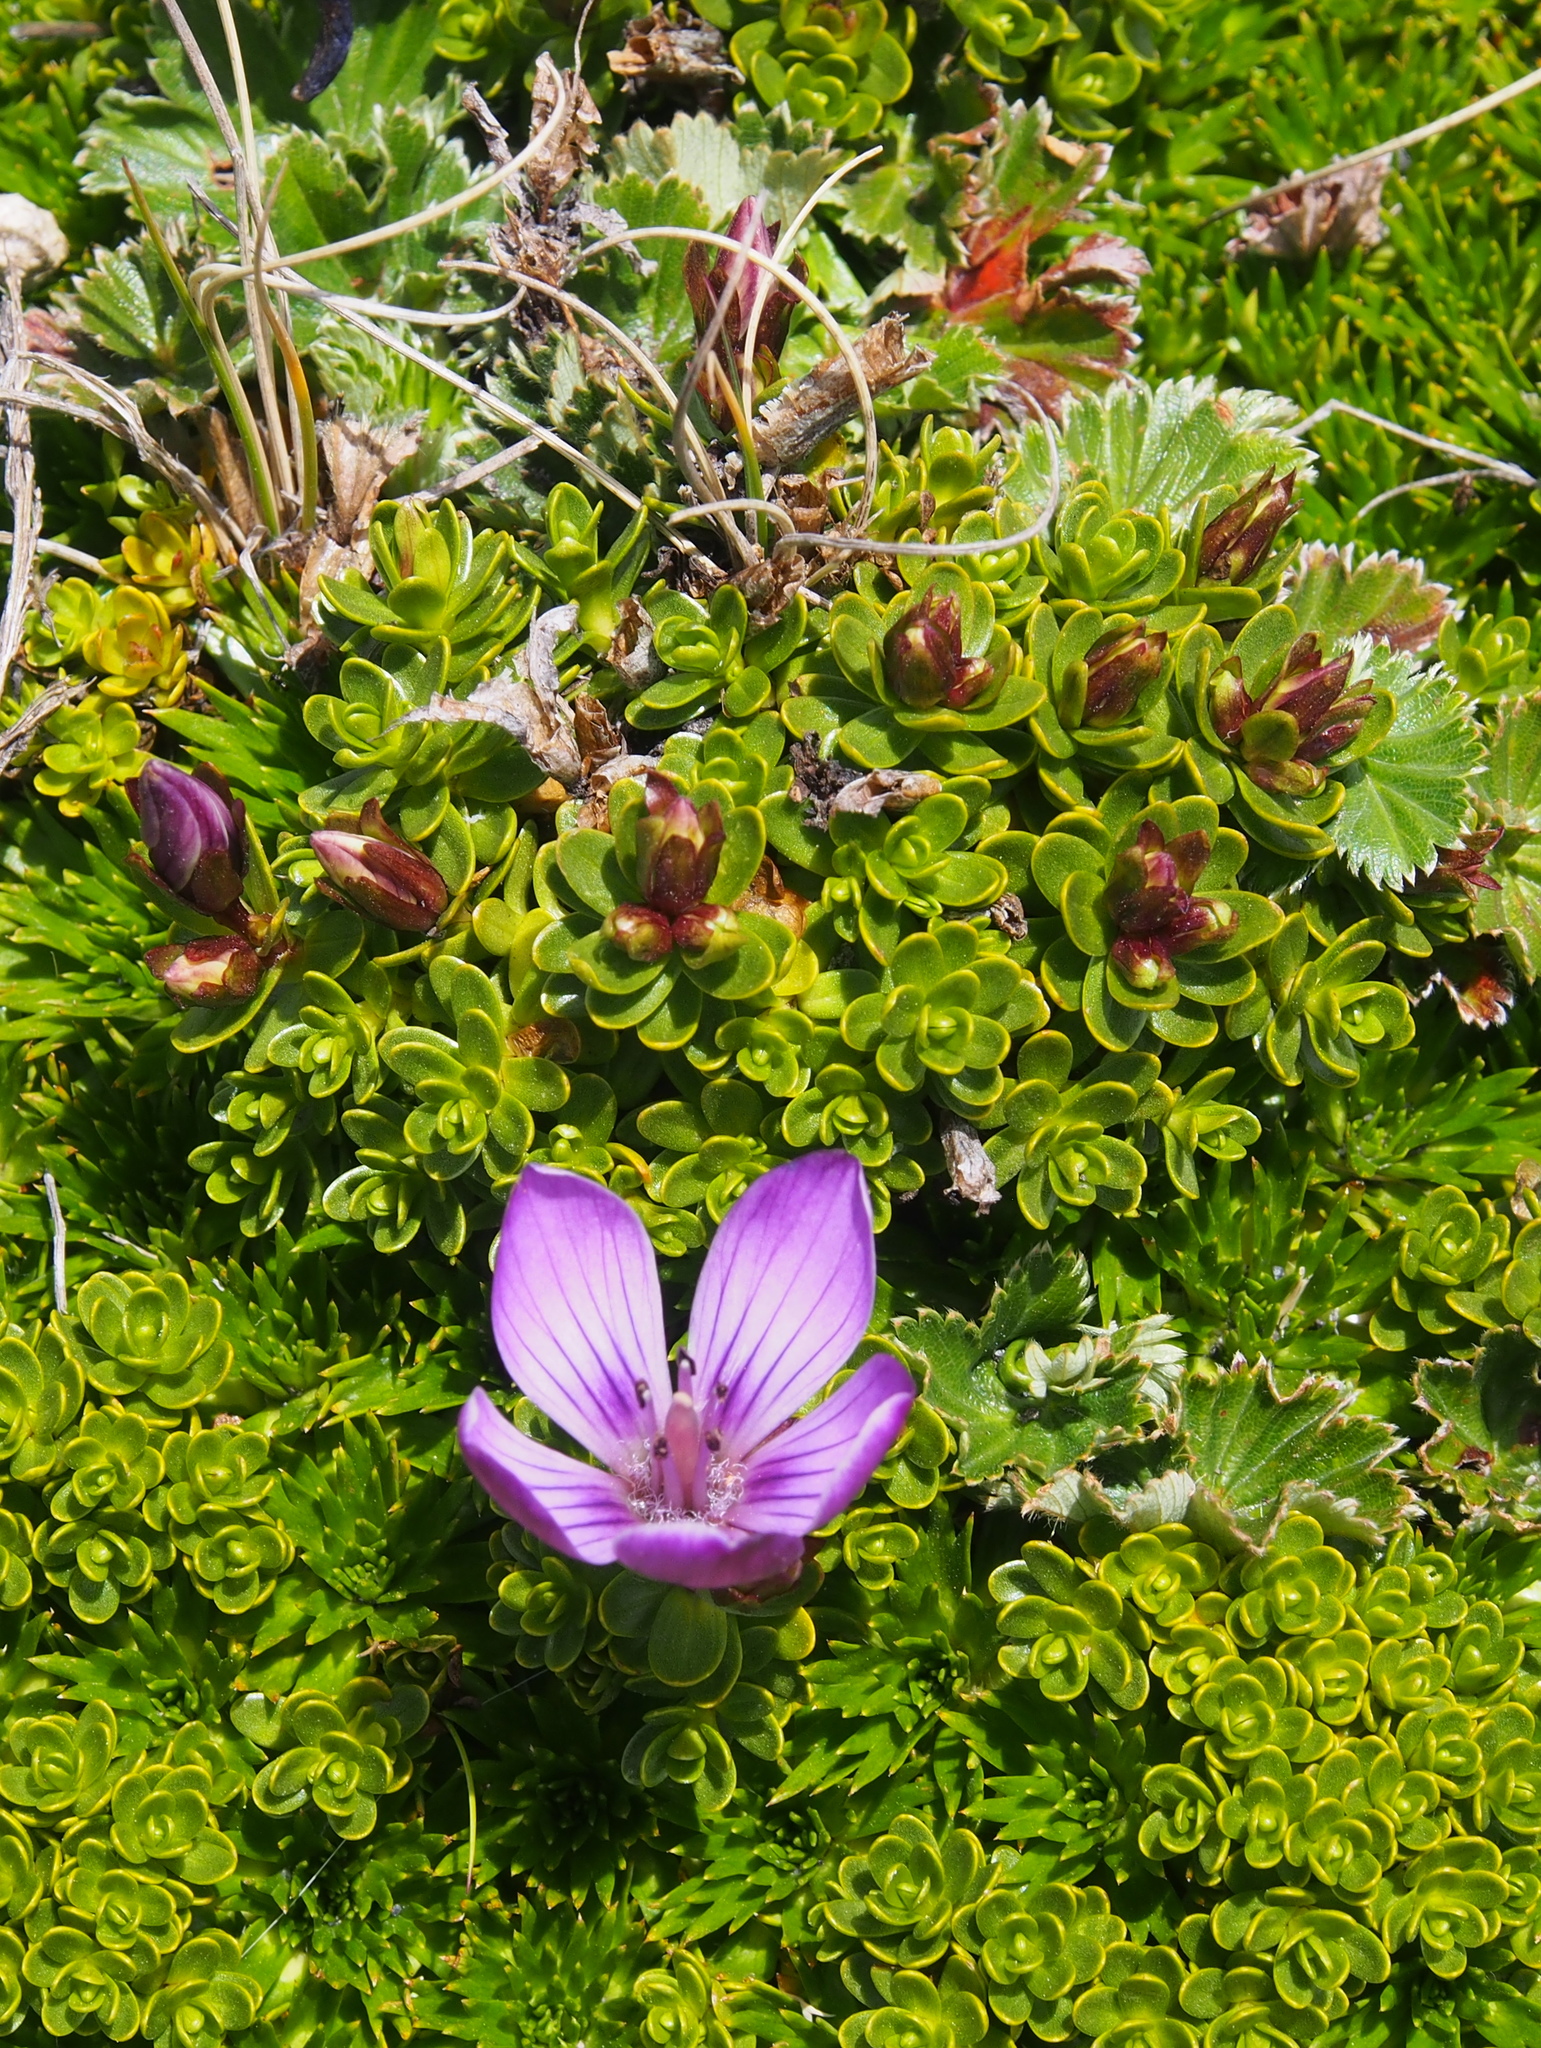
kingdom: Plantae
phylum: Tracheophyta
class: Magnoliopsida
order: Gentianales
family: Gentianaceae
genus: Gentianella
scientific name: Gentianella cerastioides
